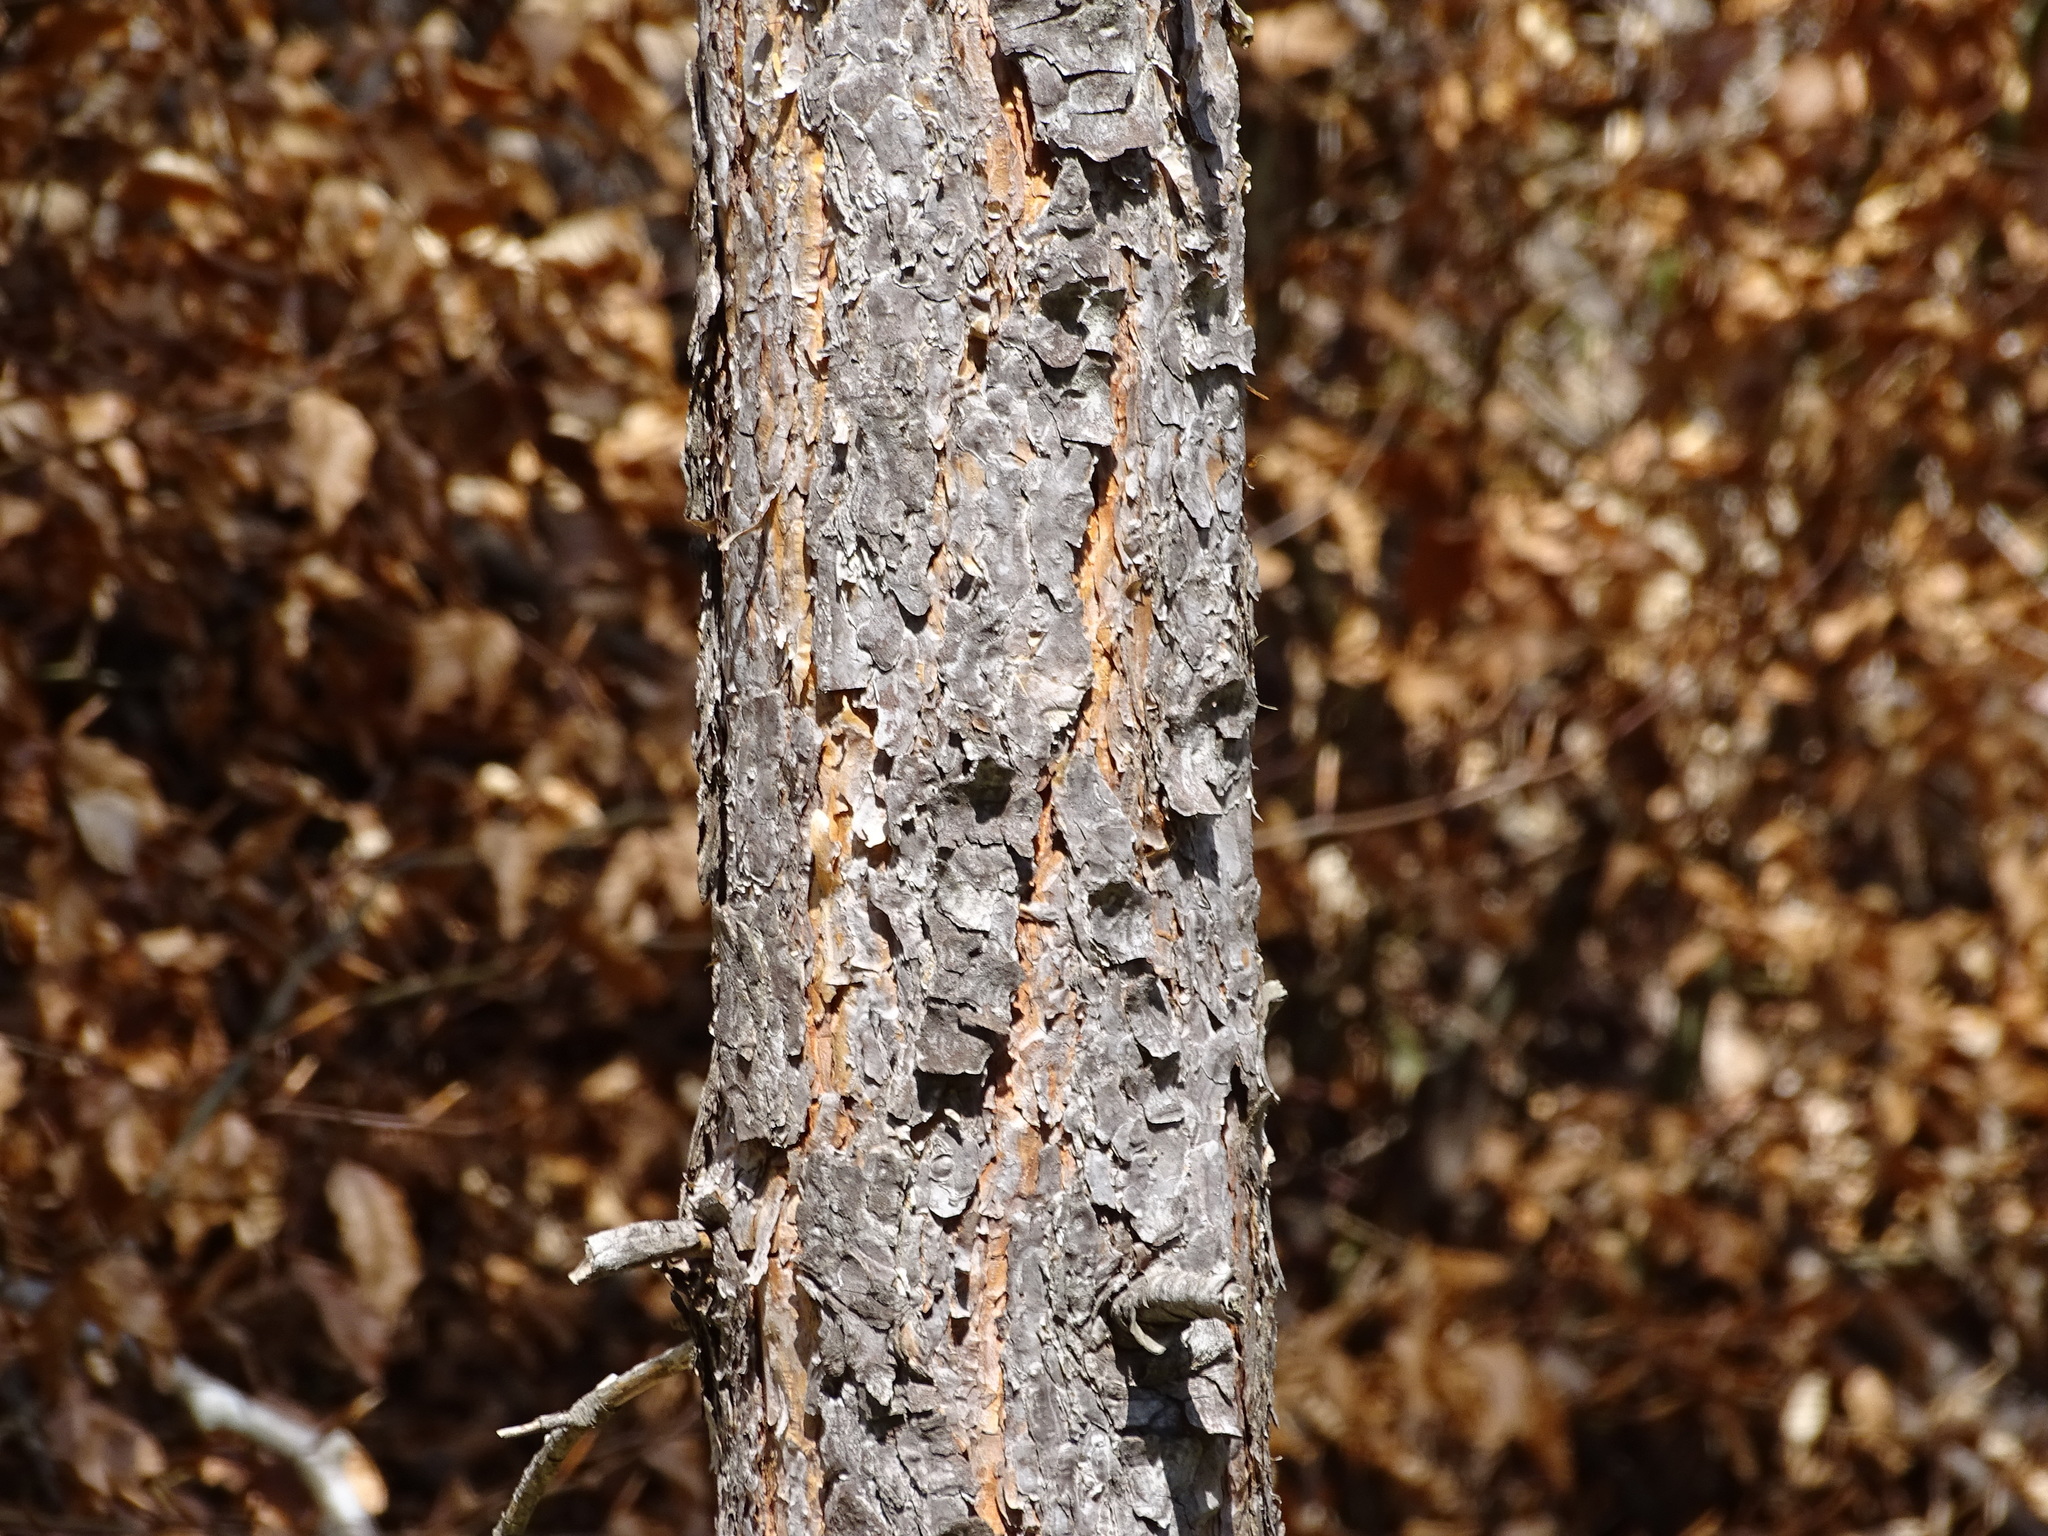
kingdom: Plantae
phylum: Tracheophyta
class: Pinopsida
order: Pinales
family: Pinaceae
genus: Pinus
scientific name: Pinus sylvestris
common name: Scots pine
